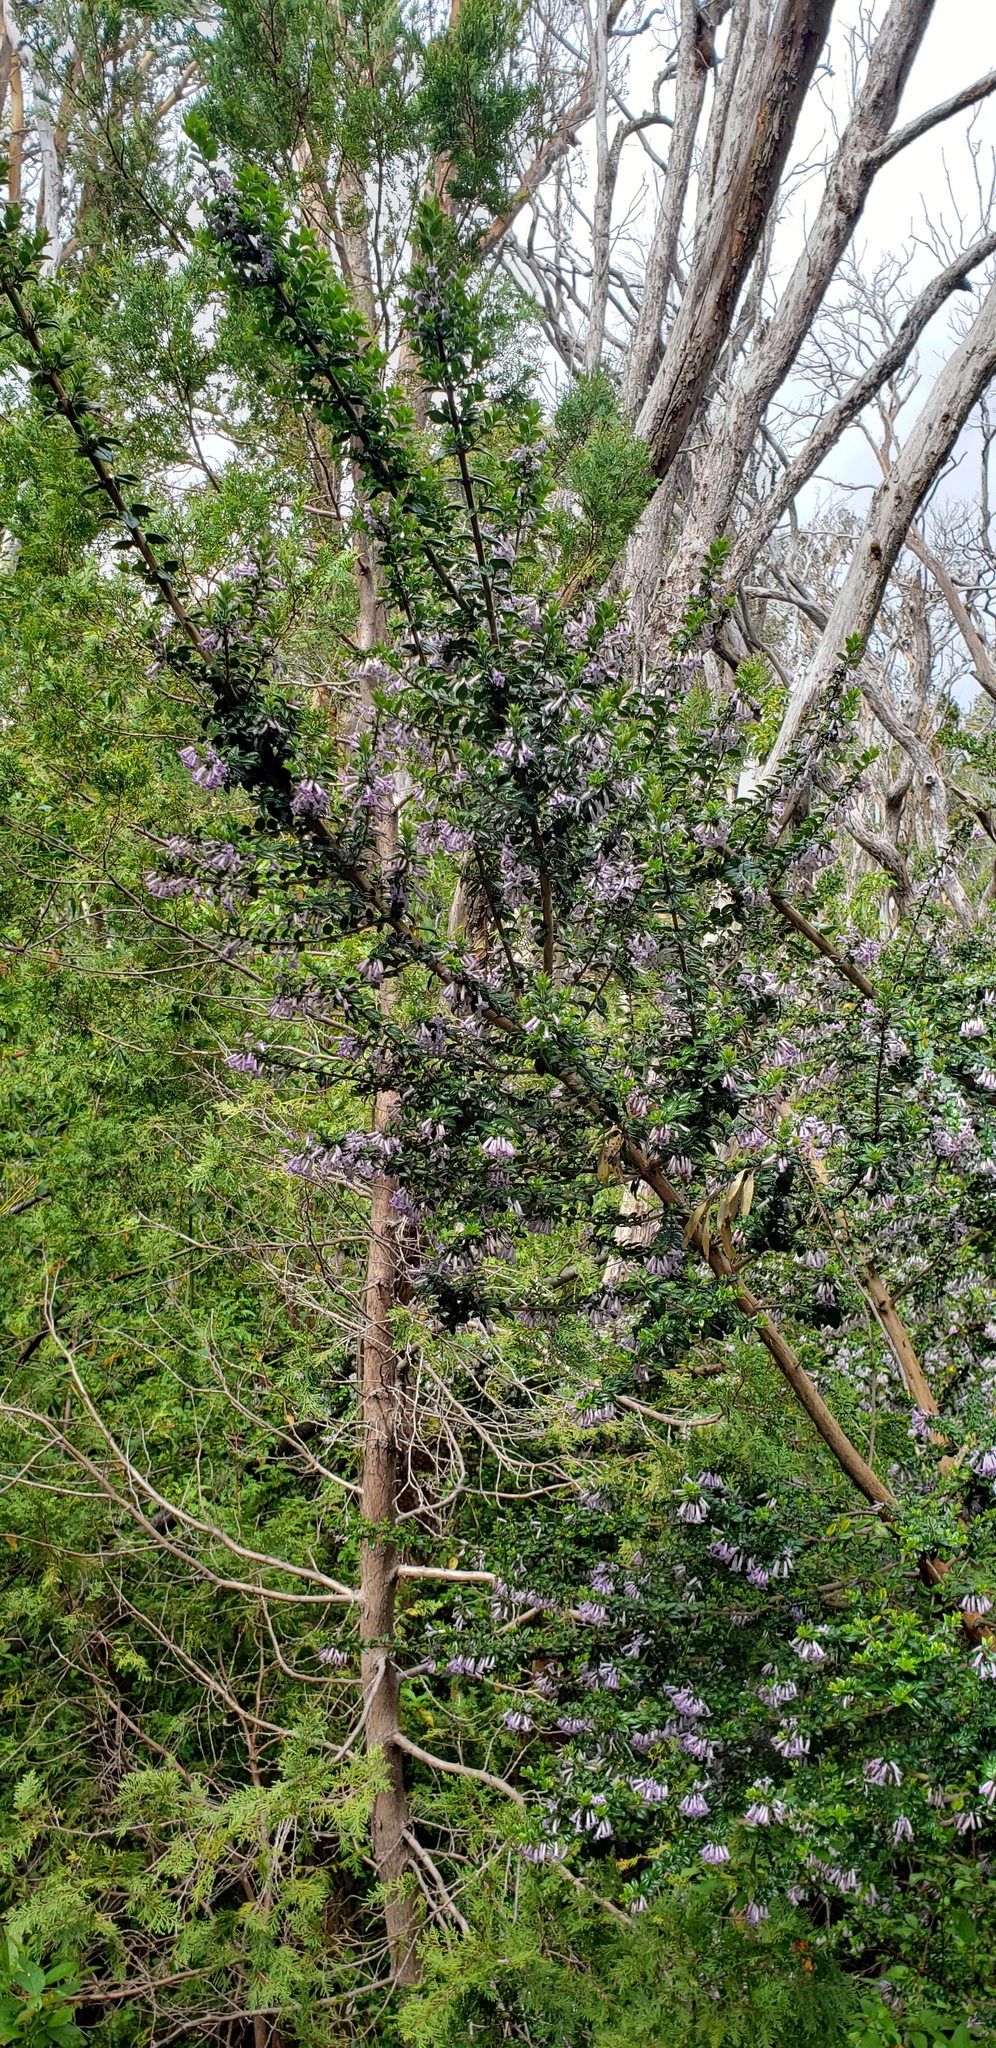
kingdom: Plantae
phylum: Tracheophyta
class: Magnoliopsida
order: Lamiales
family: Verbenaceae
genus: Rhaphithamnus
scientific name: Rhaphithamnus spinosus
